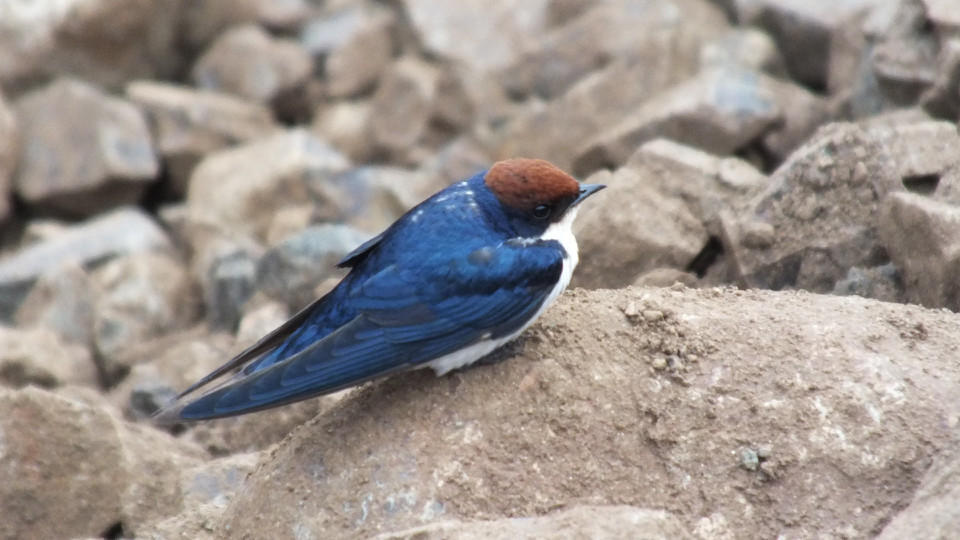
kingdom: Animalia
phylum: Chordata
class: Aves
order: Passeriformes
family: Hirundinidae
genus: Hirundo
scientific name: Hirundo smithii
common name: Wire-tailed swallow
